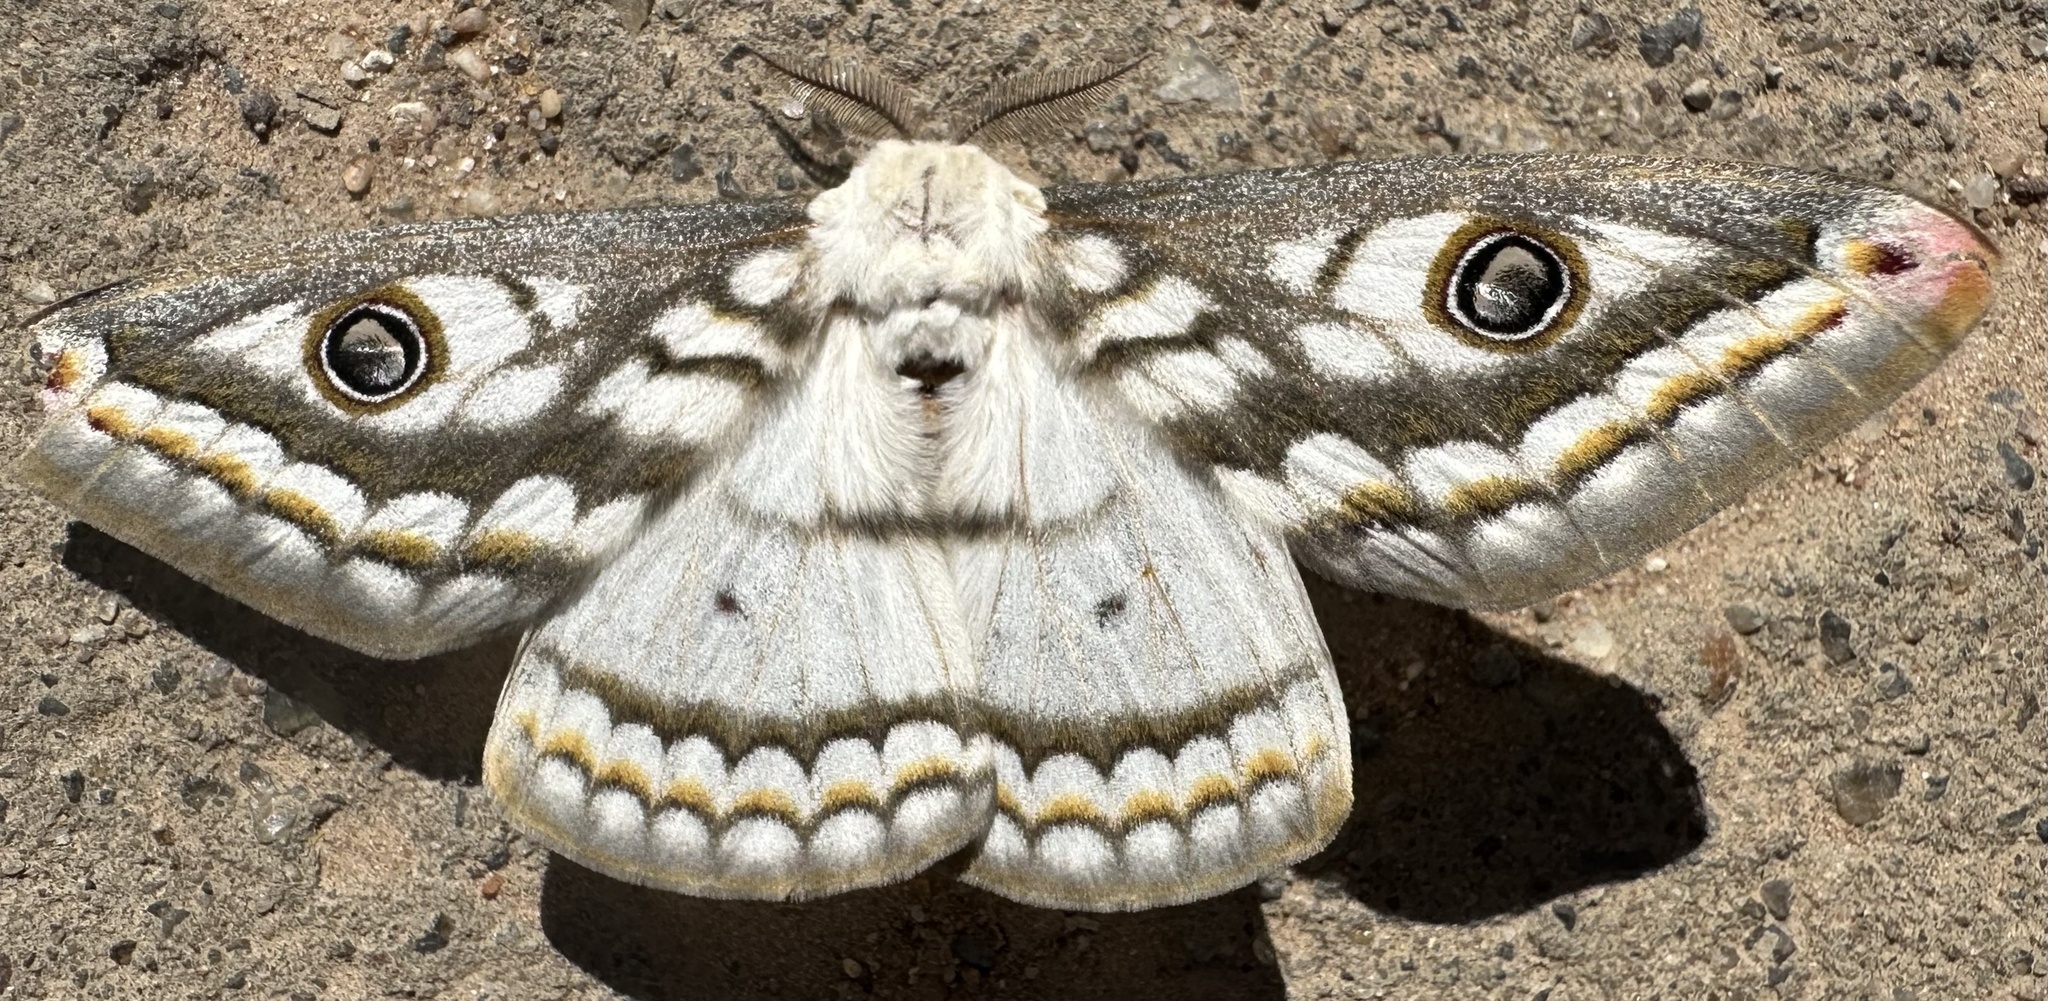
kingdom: Animalia
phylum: Arthropoda
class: Insecta
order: Lepidoptera
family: Saturniidae
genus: Heniocha
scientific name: Heniocha bioculata
